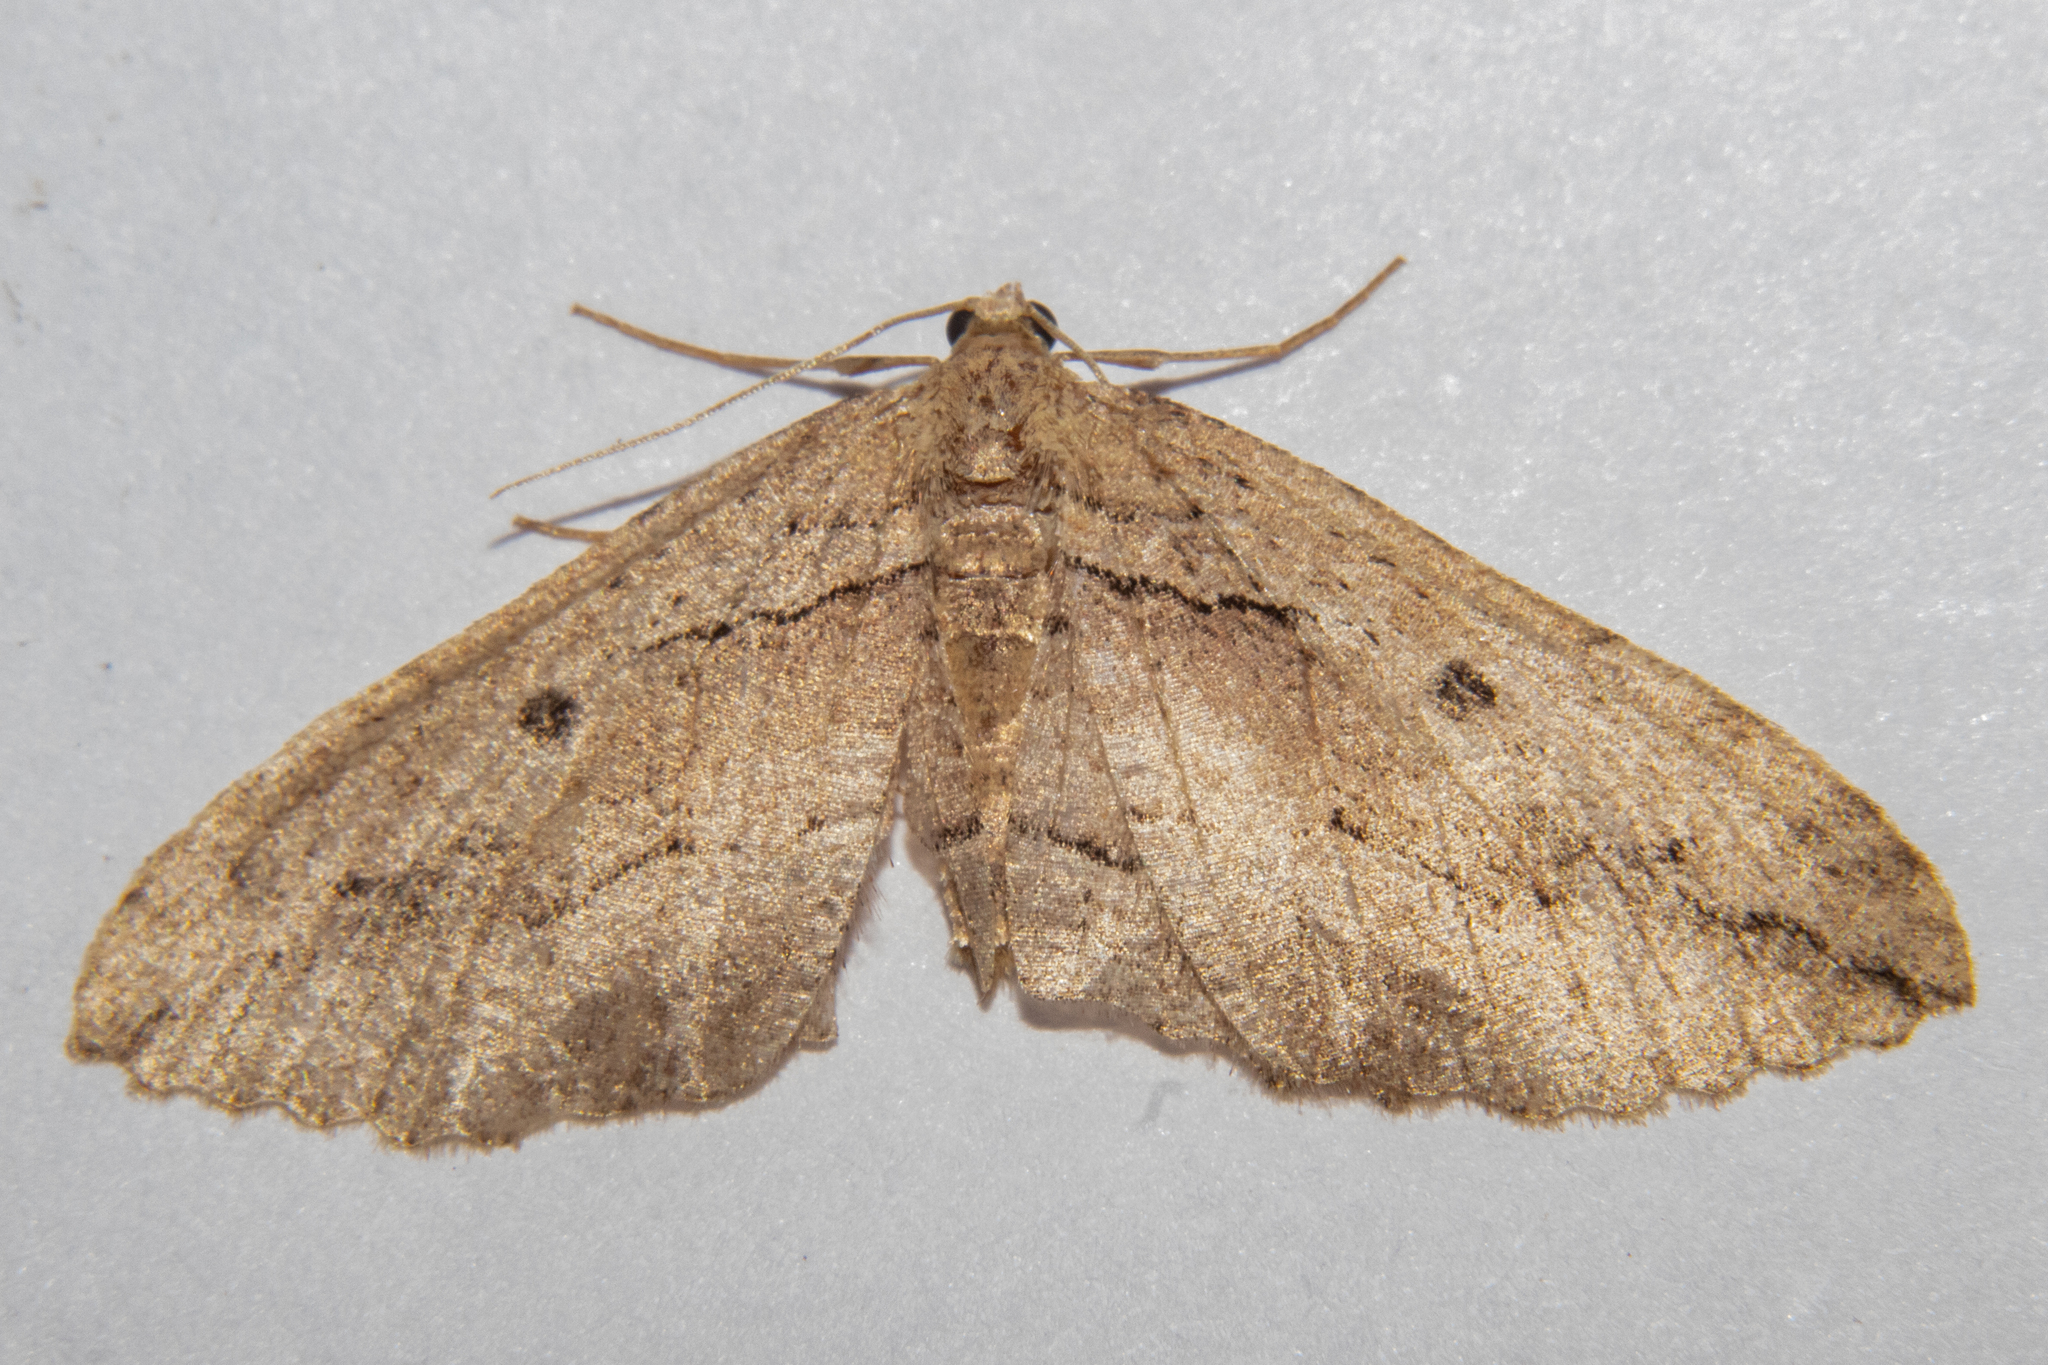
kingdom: Animalia
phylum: Arthropoda
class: Insecta
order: Lepidoptera
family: Geometridae
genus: Austrocidaria
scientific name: Austrocidaria gobiata
